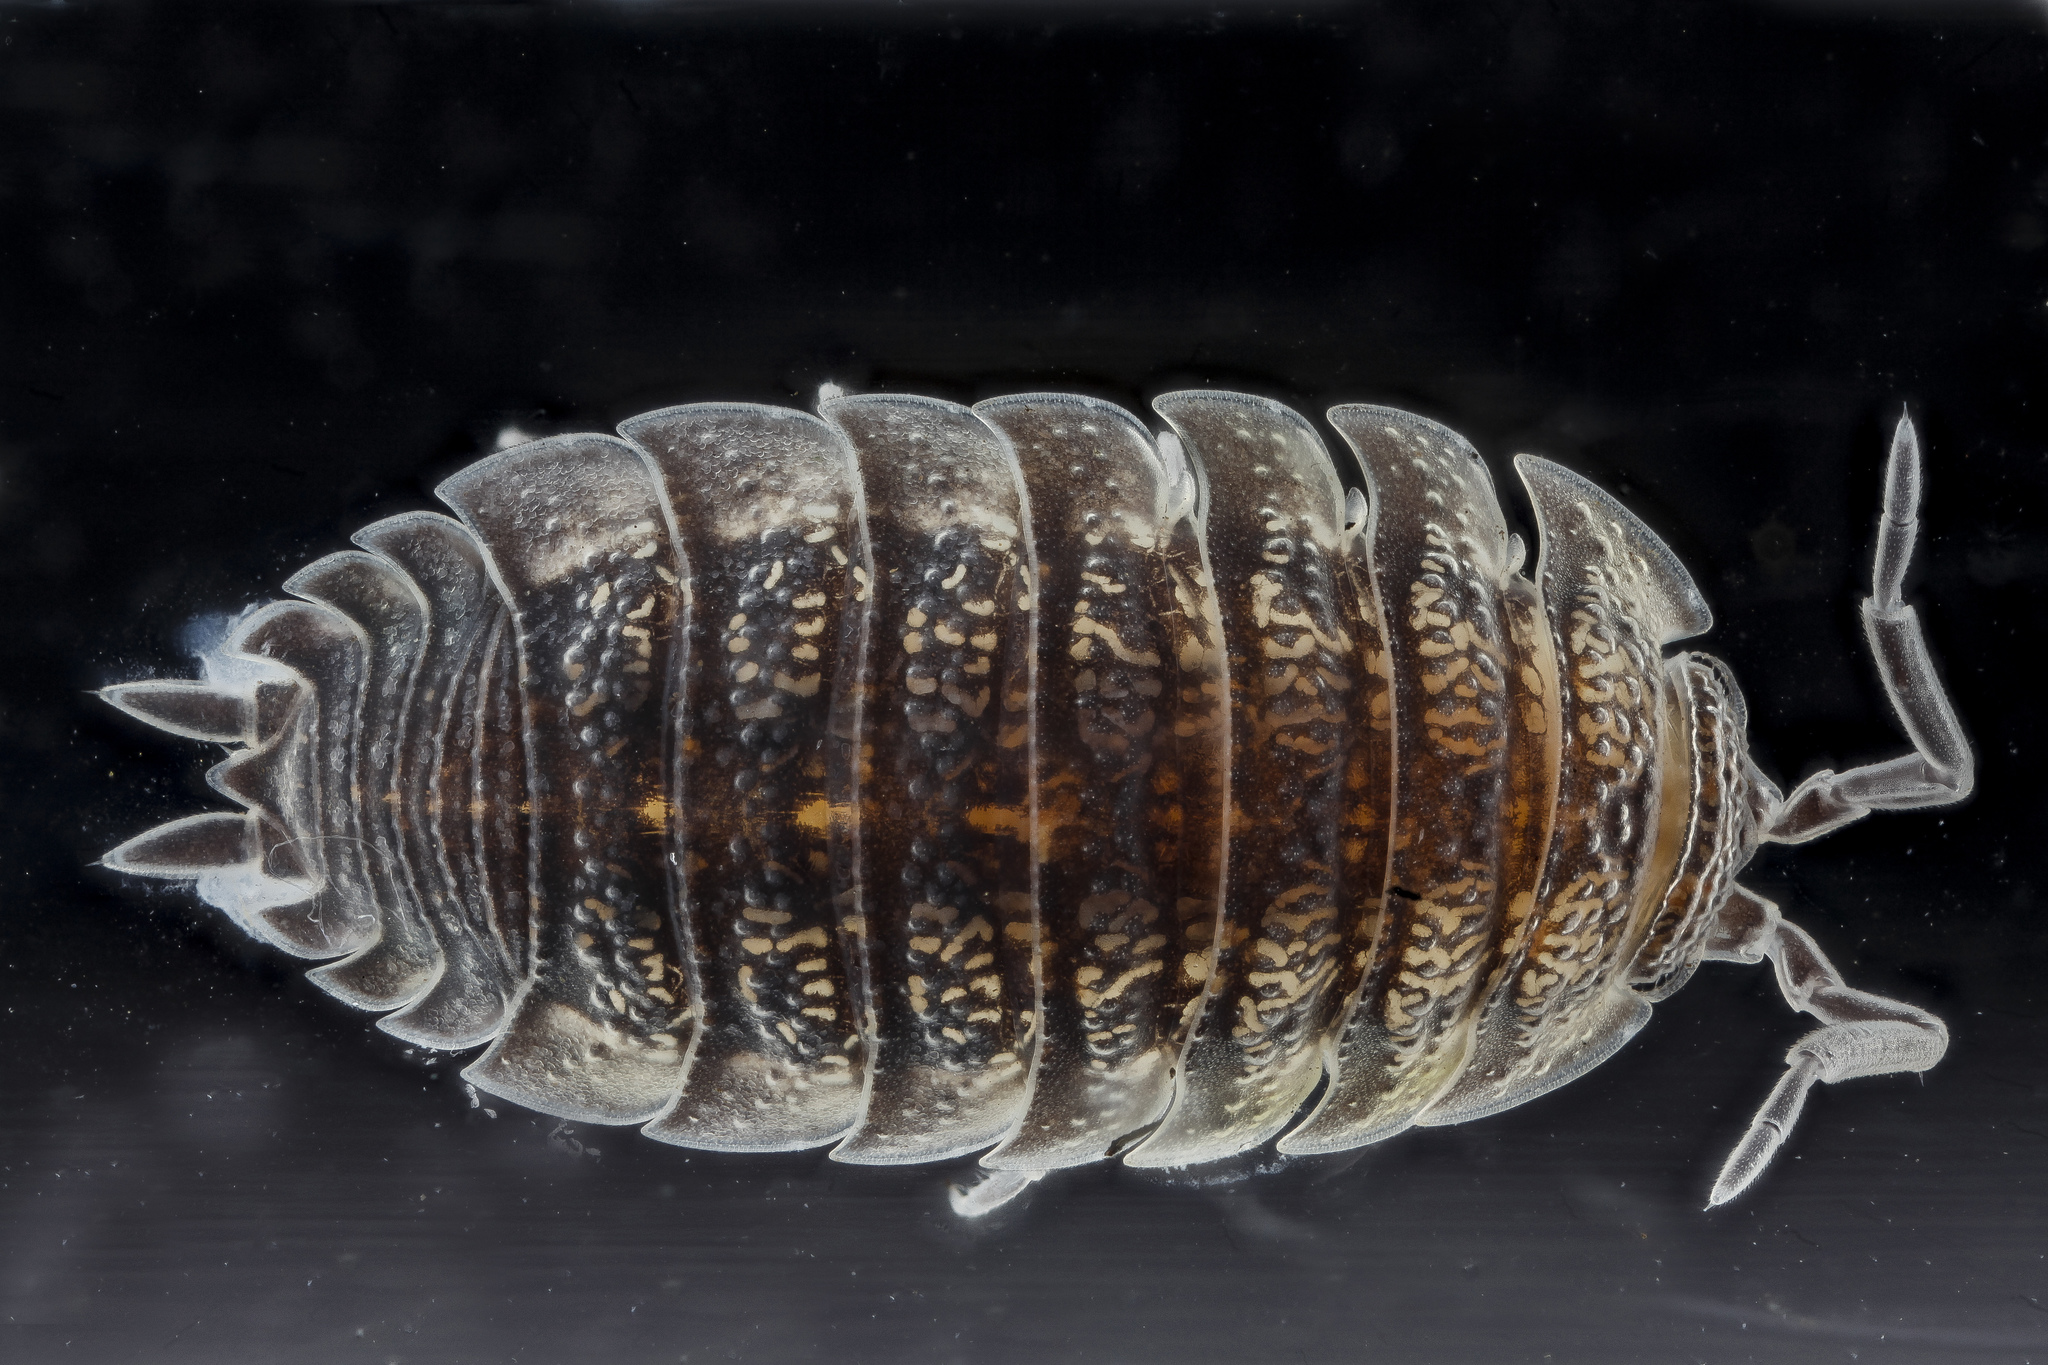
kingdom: Animalia
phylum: Arthropoda
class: Malacostraca
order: Isopoda
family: Trachelipodidae
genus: Trachelipus
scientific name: Trachelipus rathkii
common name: Isopod
